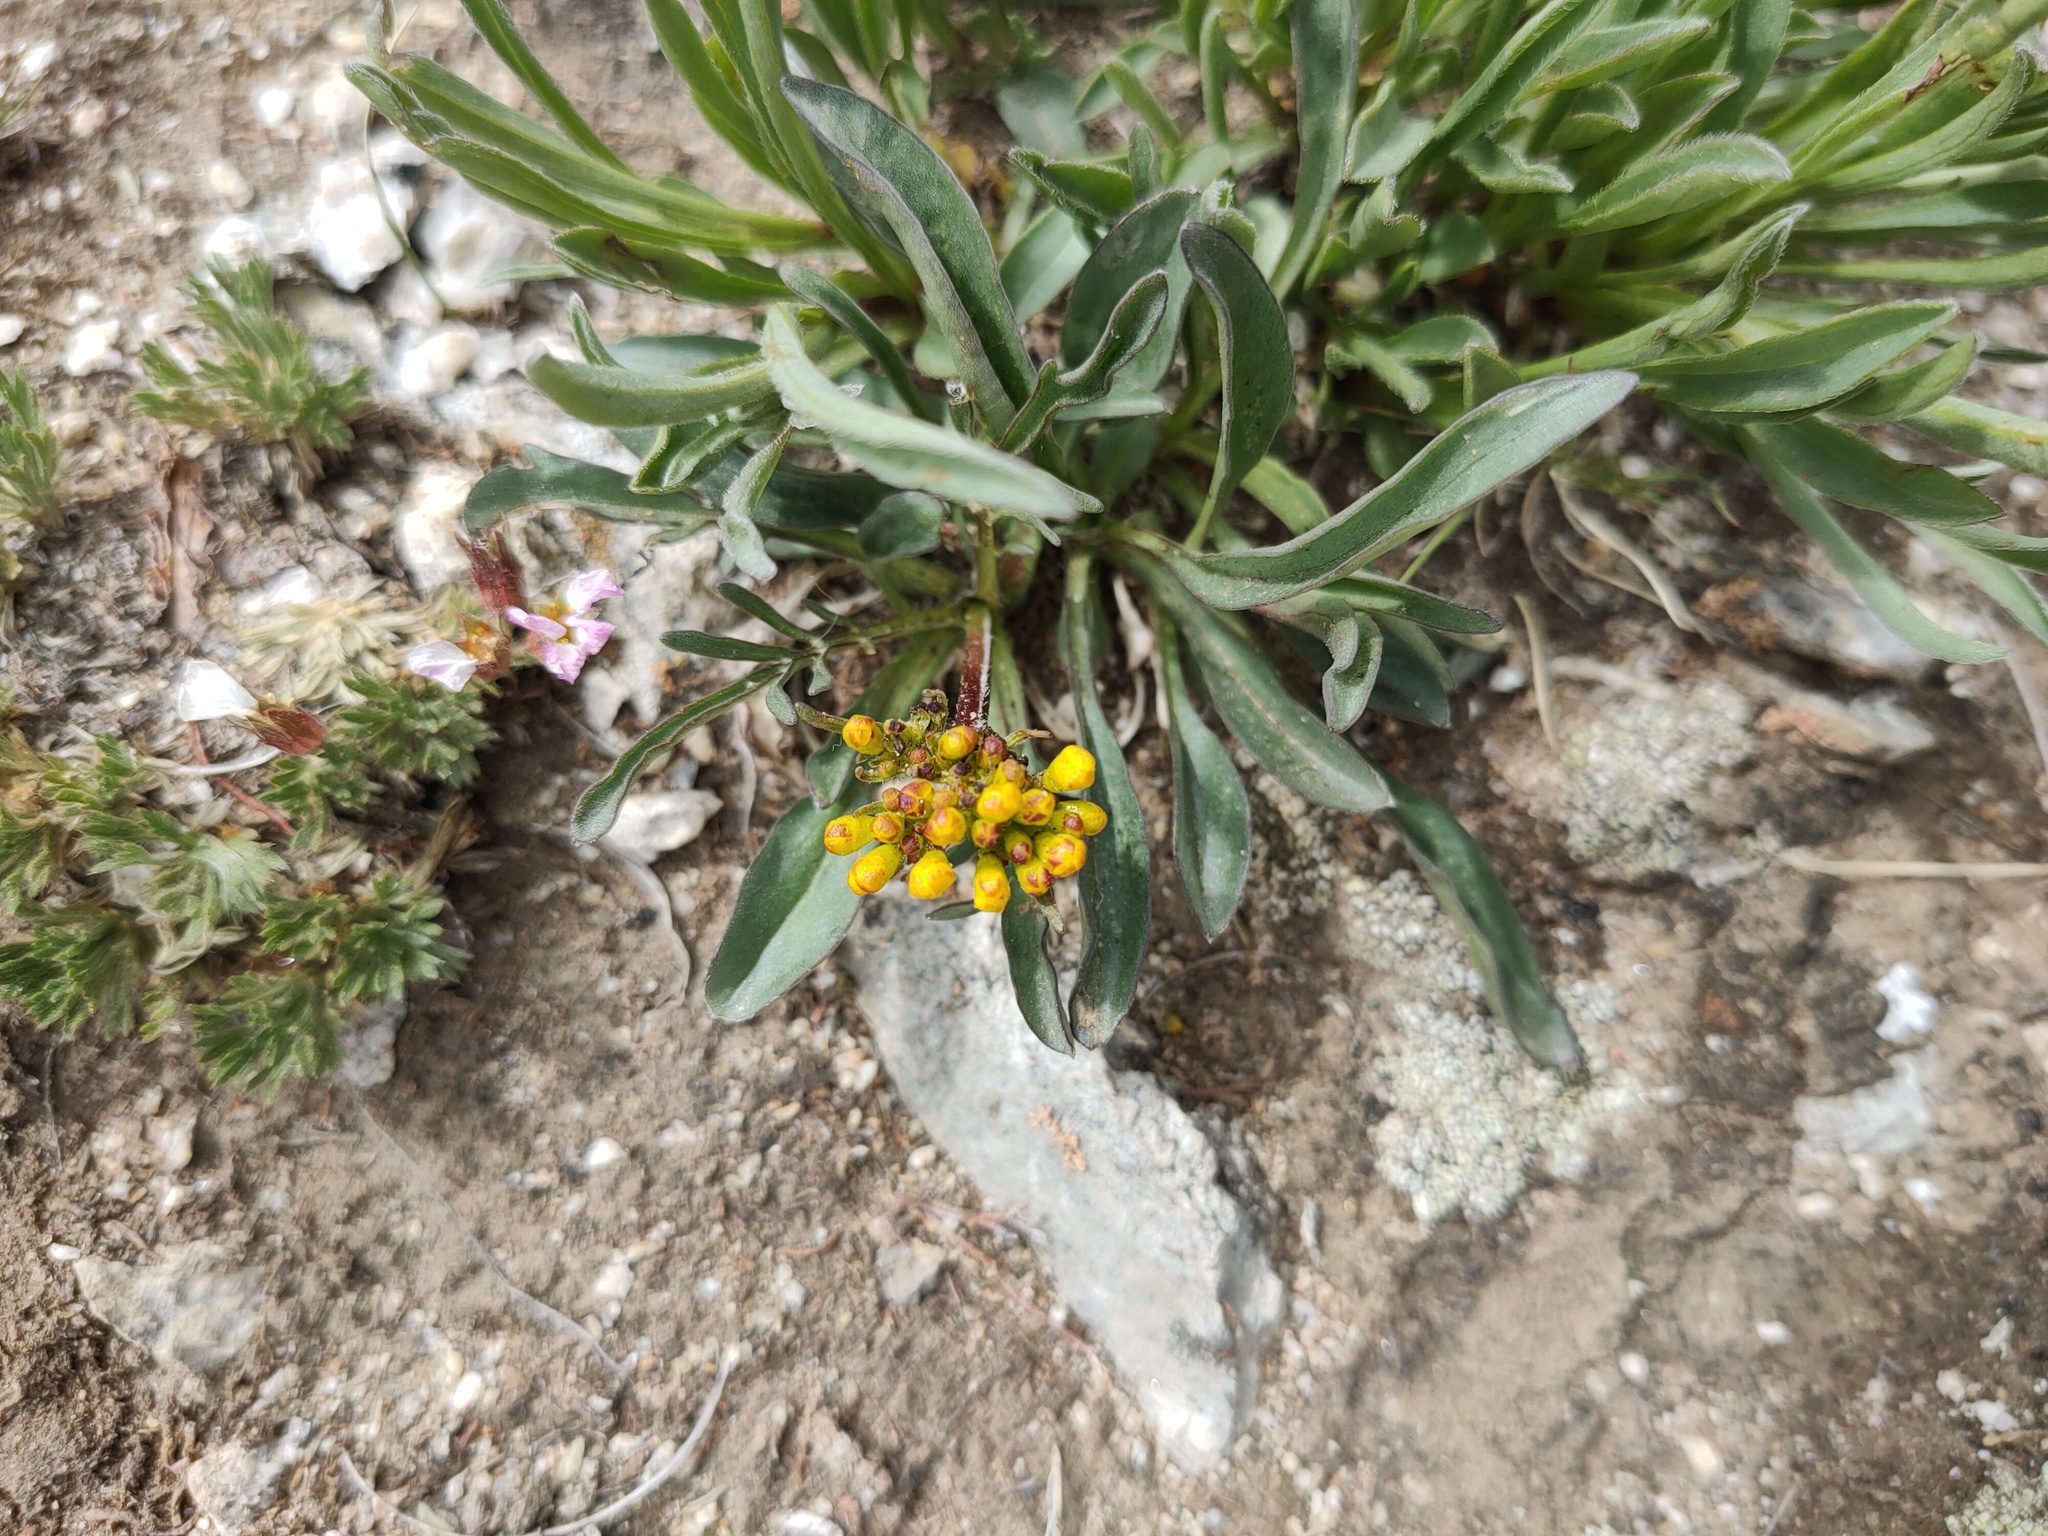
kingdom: Plantae
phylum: Tracheophyta
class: Magnoliopsida
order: Dipsacales
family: Caprifoliaceae
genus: Patrinia
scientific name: Patrinia sibirica
